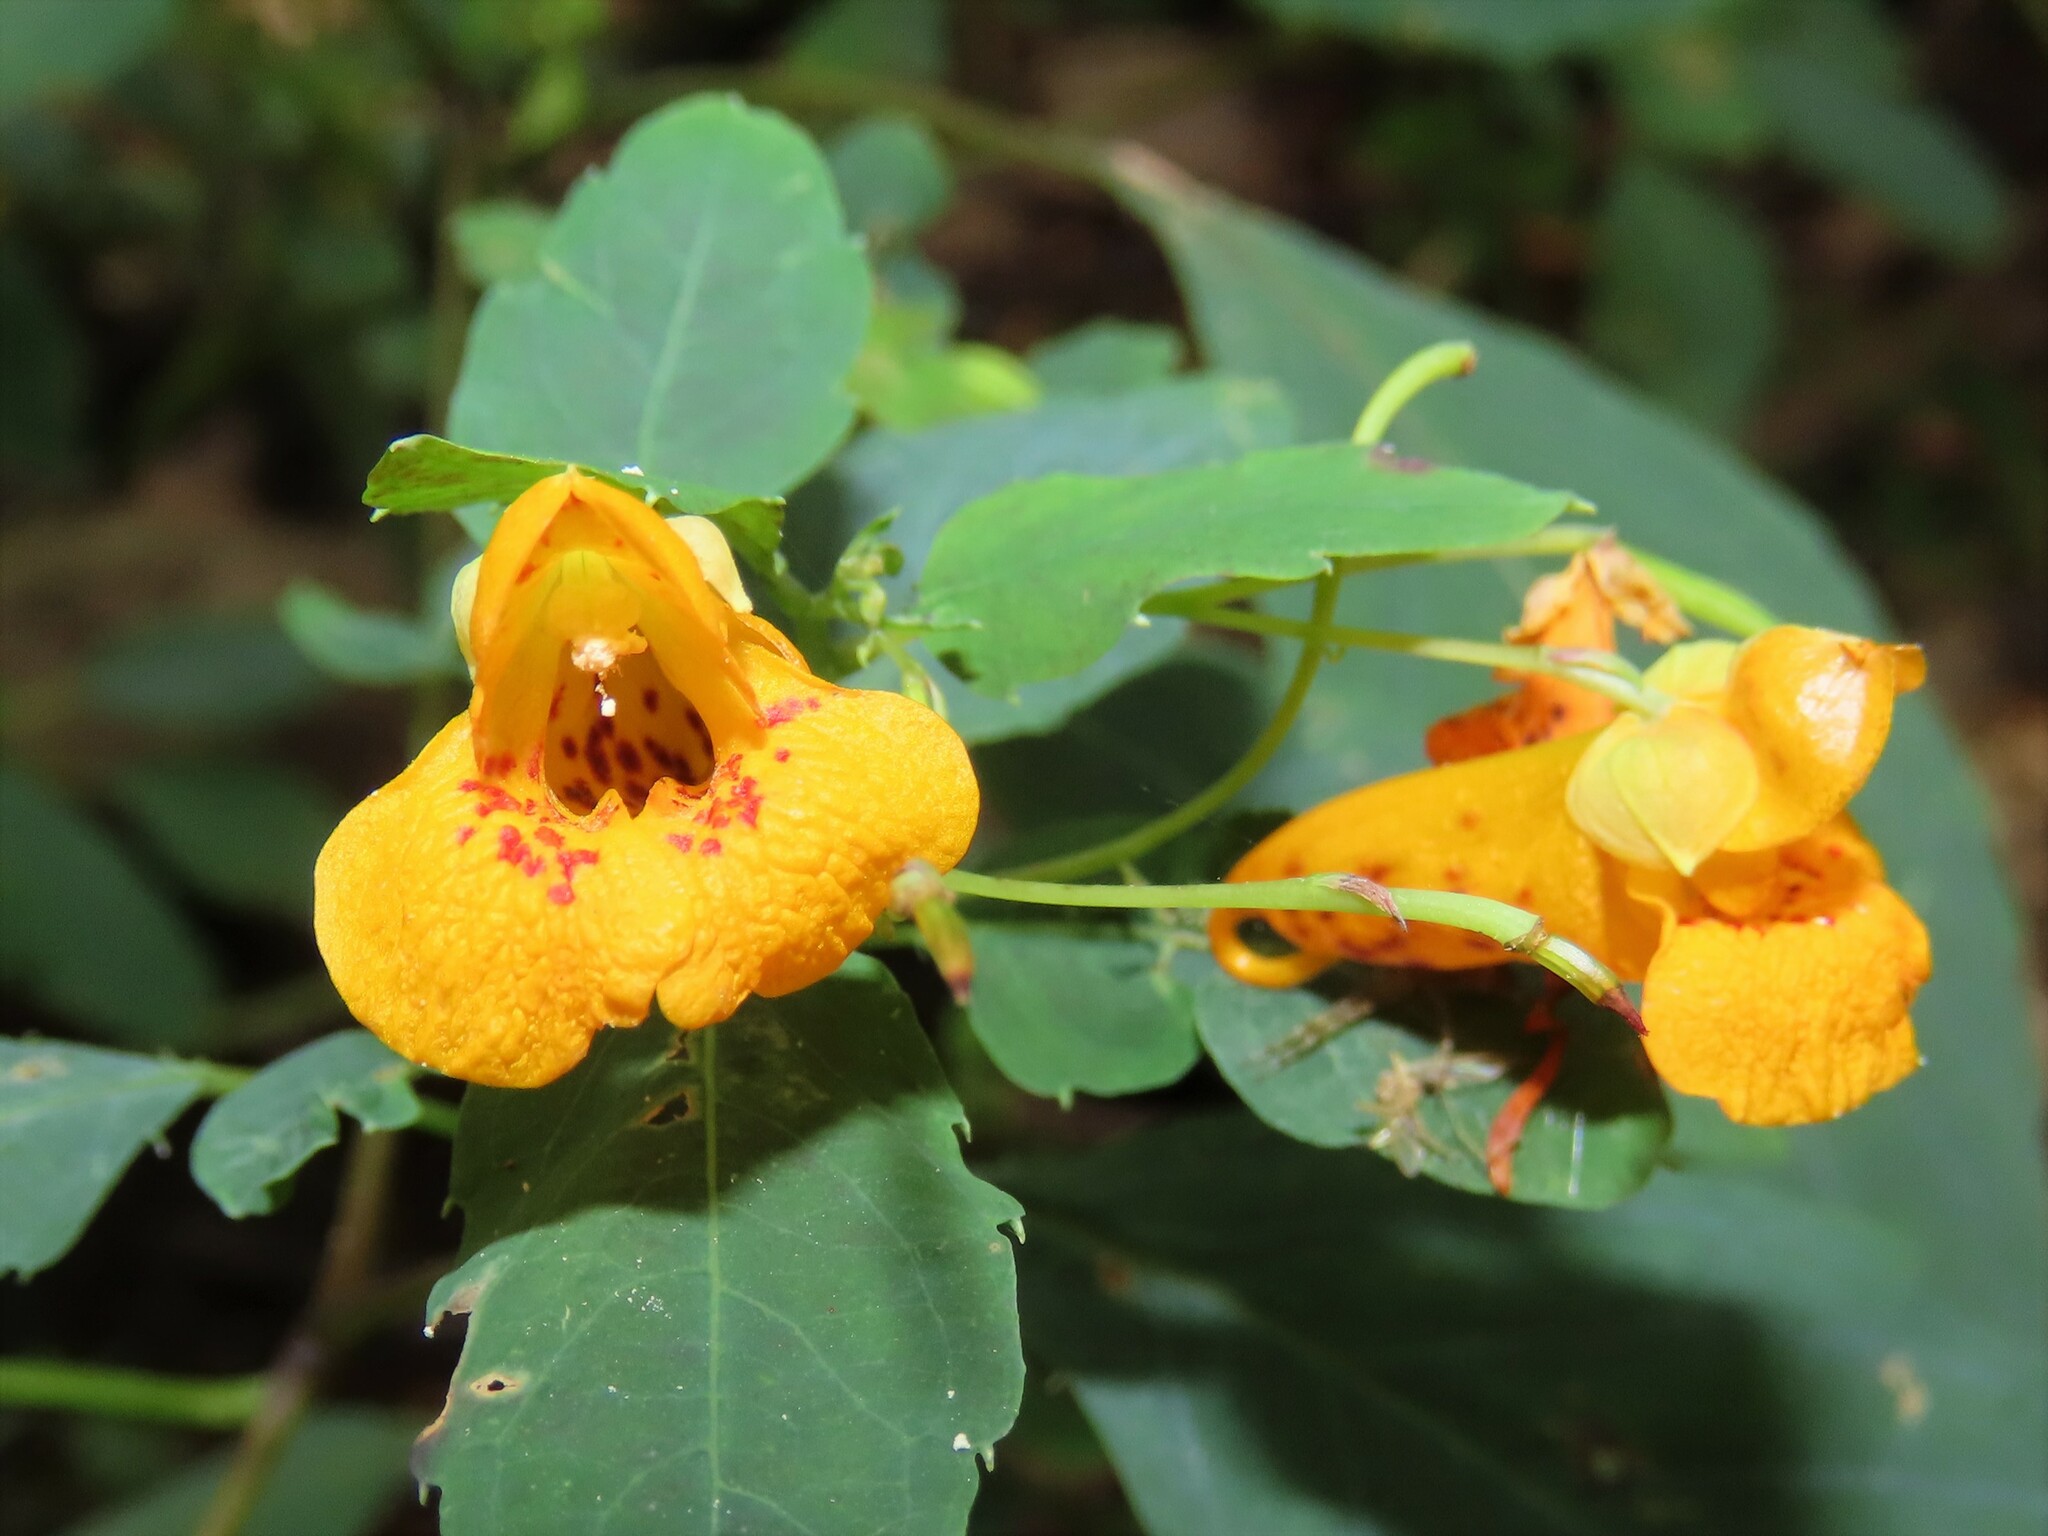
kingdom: Plantae
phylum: Tracheophyta
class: Magnoliopsida
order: Ericales
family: Balsaminaceae
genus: Impatiens
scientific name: Impatiens capensis
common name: Orange balsam
